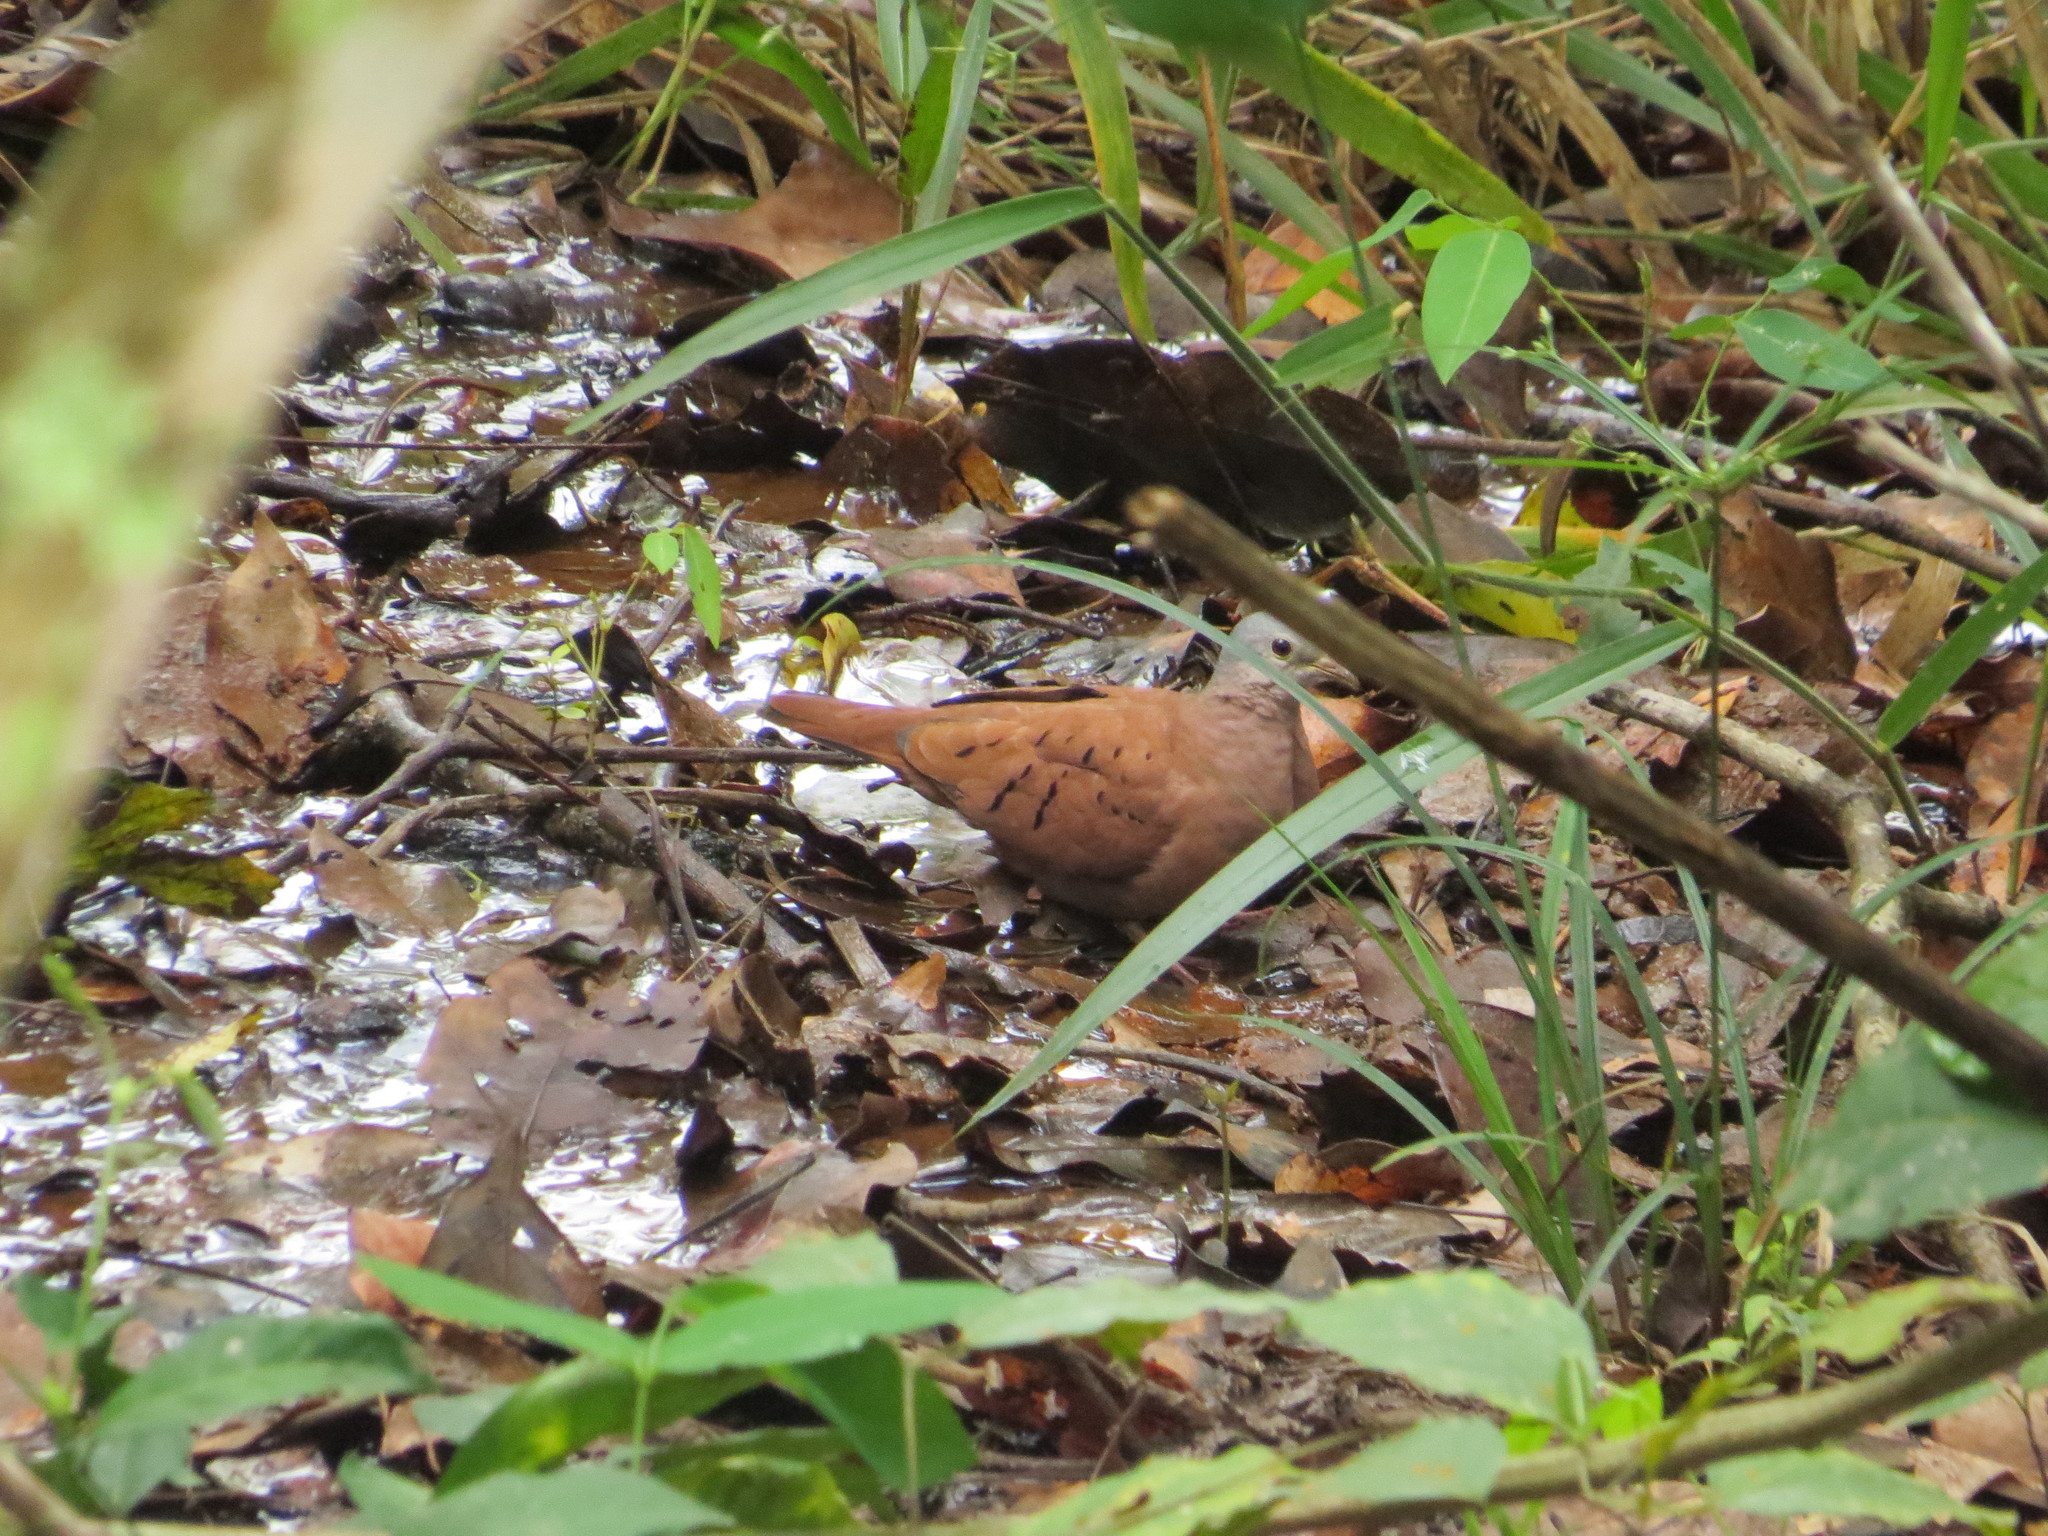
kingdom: Animalia
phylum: Chordata
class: Aves
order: Columbiformes
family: Columbidae
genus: Columbina
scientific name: Columbina talpacoti
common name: Ruddy ground dove
